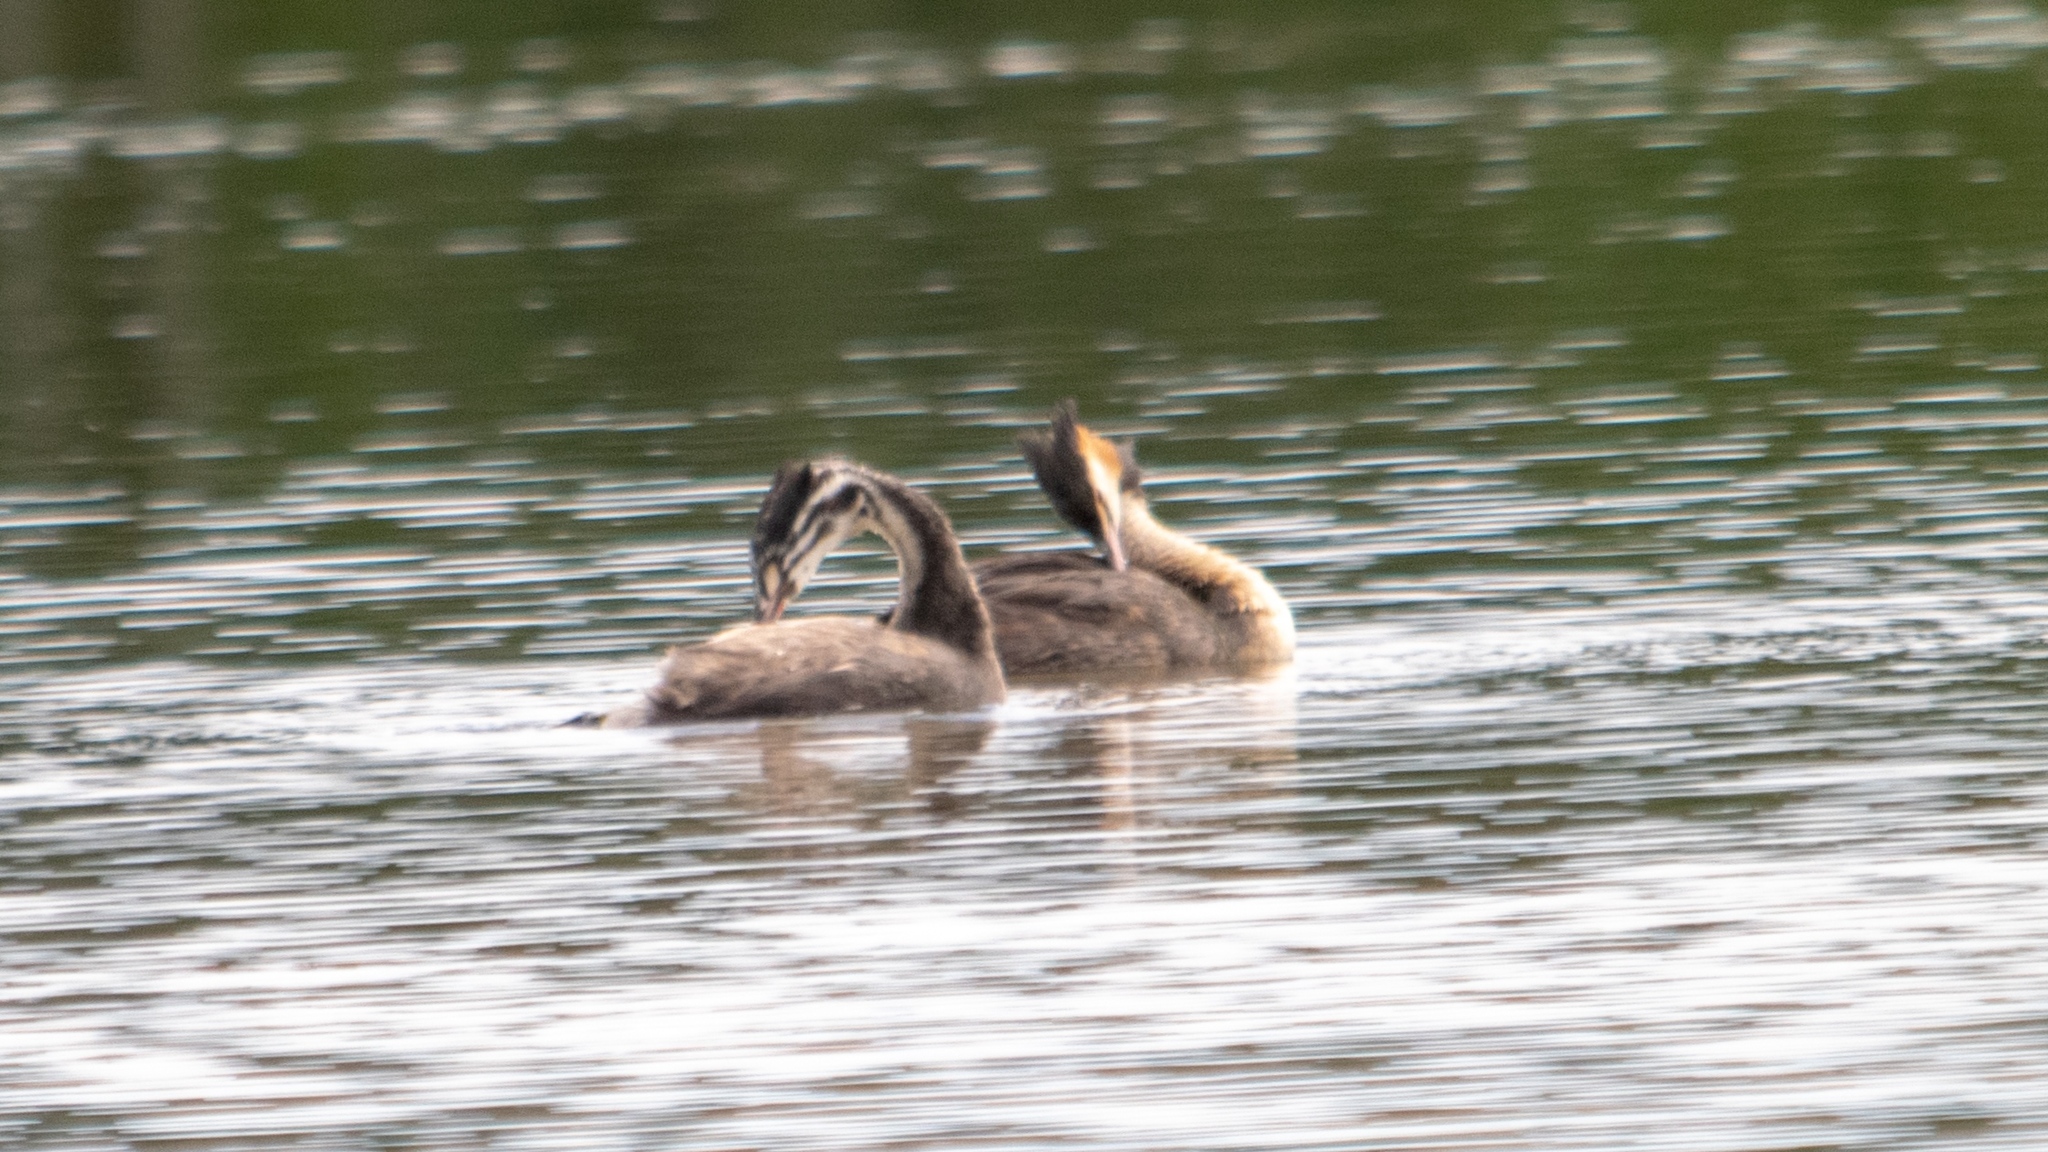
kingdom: Animalia
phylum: Chordata
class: Aves
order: Podicipediformes
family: Podicipedidae
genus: Podiceps
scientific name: Podiceps cristatus
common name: Great crested grebe
